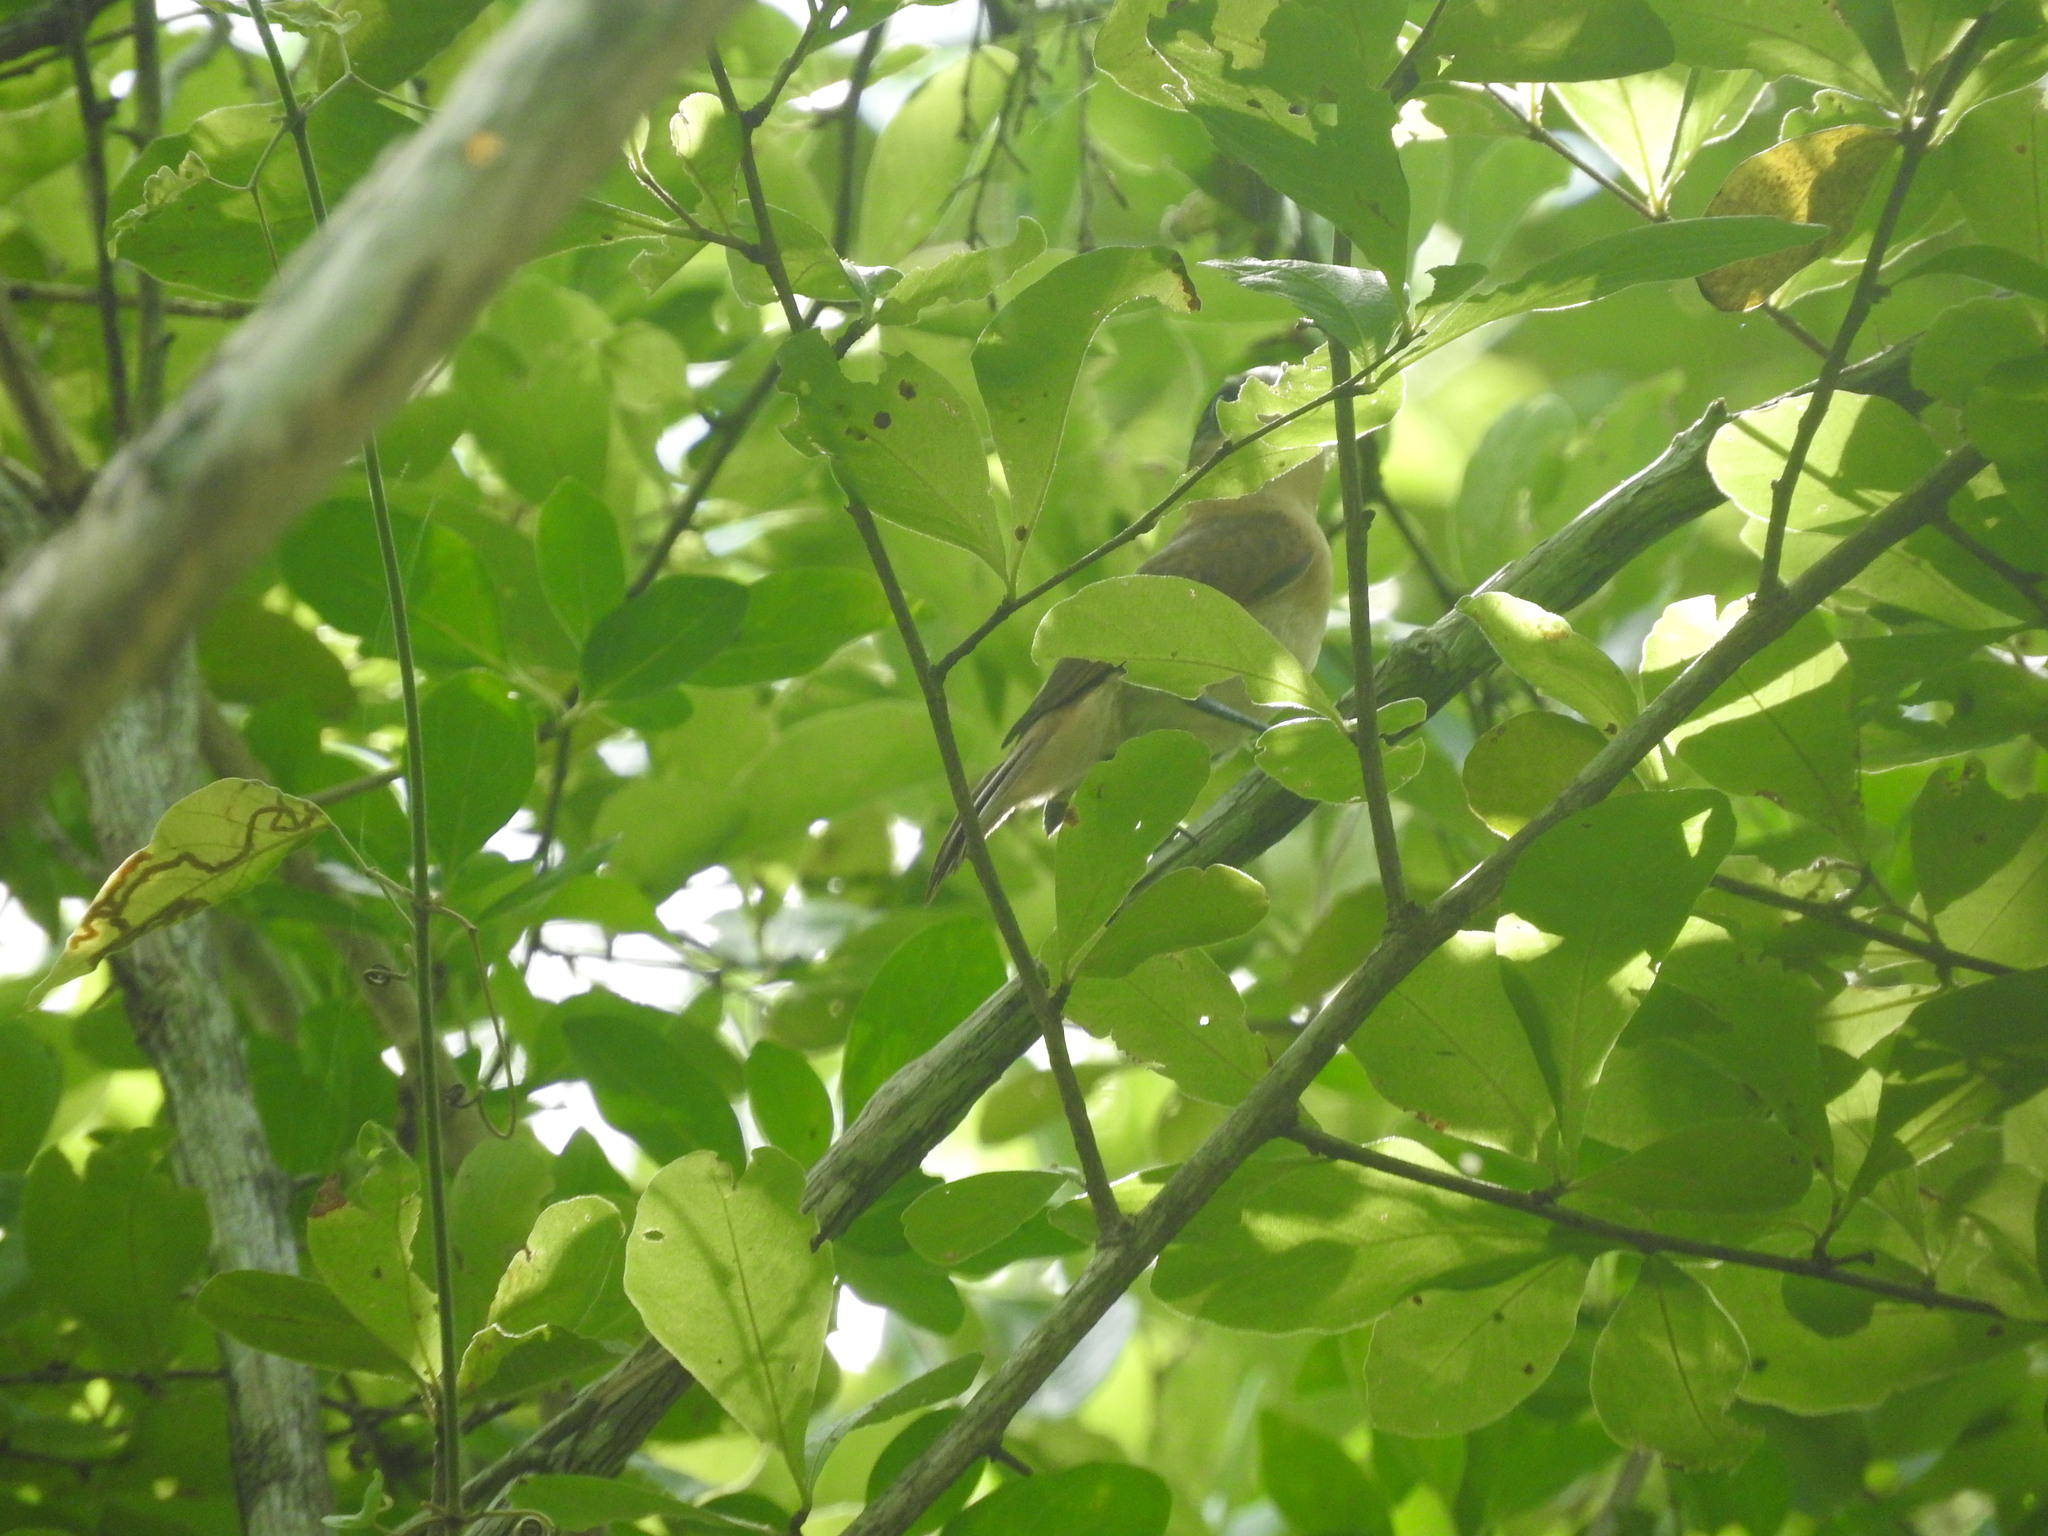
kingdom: Animalia
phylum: Chordata
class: Aves
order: Passeriformes
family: Cotingidae
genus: Pachyramphus
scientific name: Pachyramphus aglaiae
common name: Rose-throated becard
